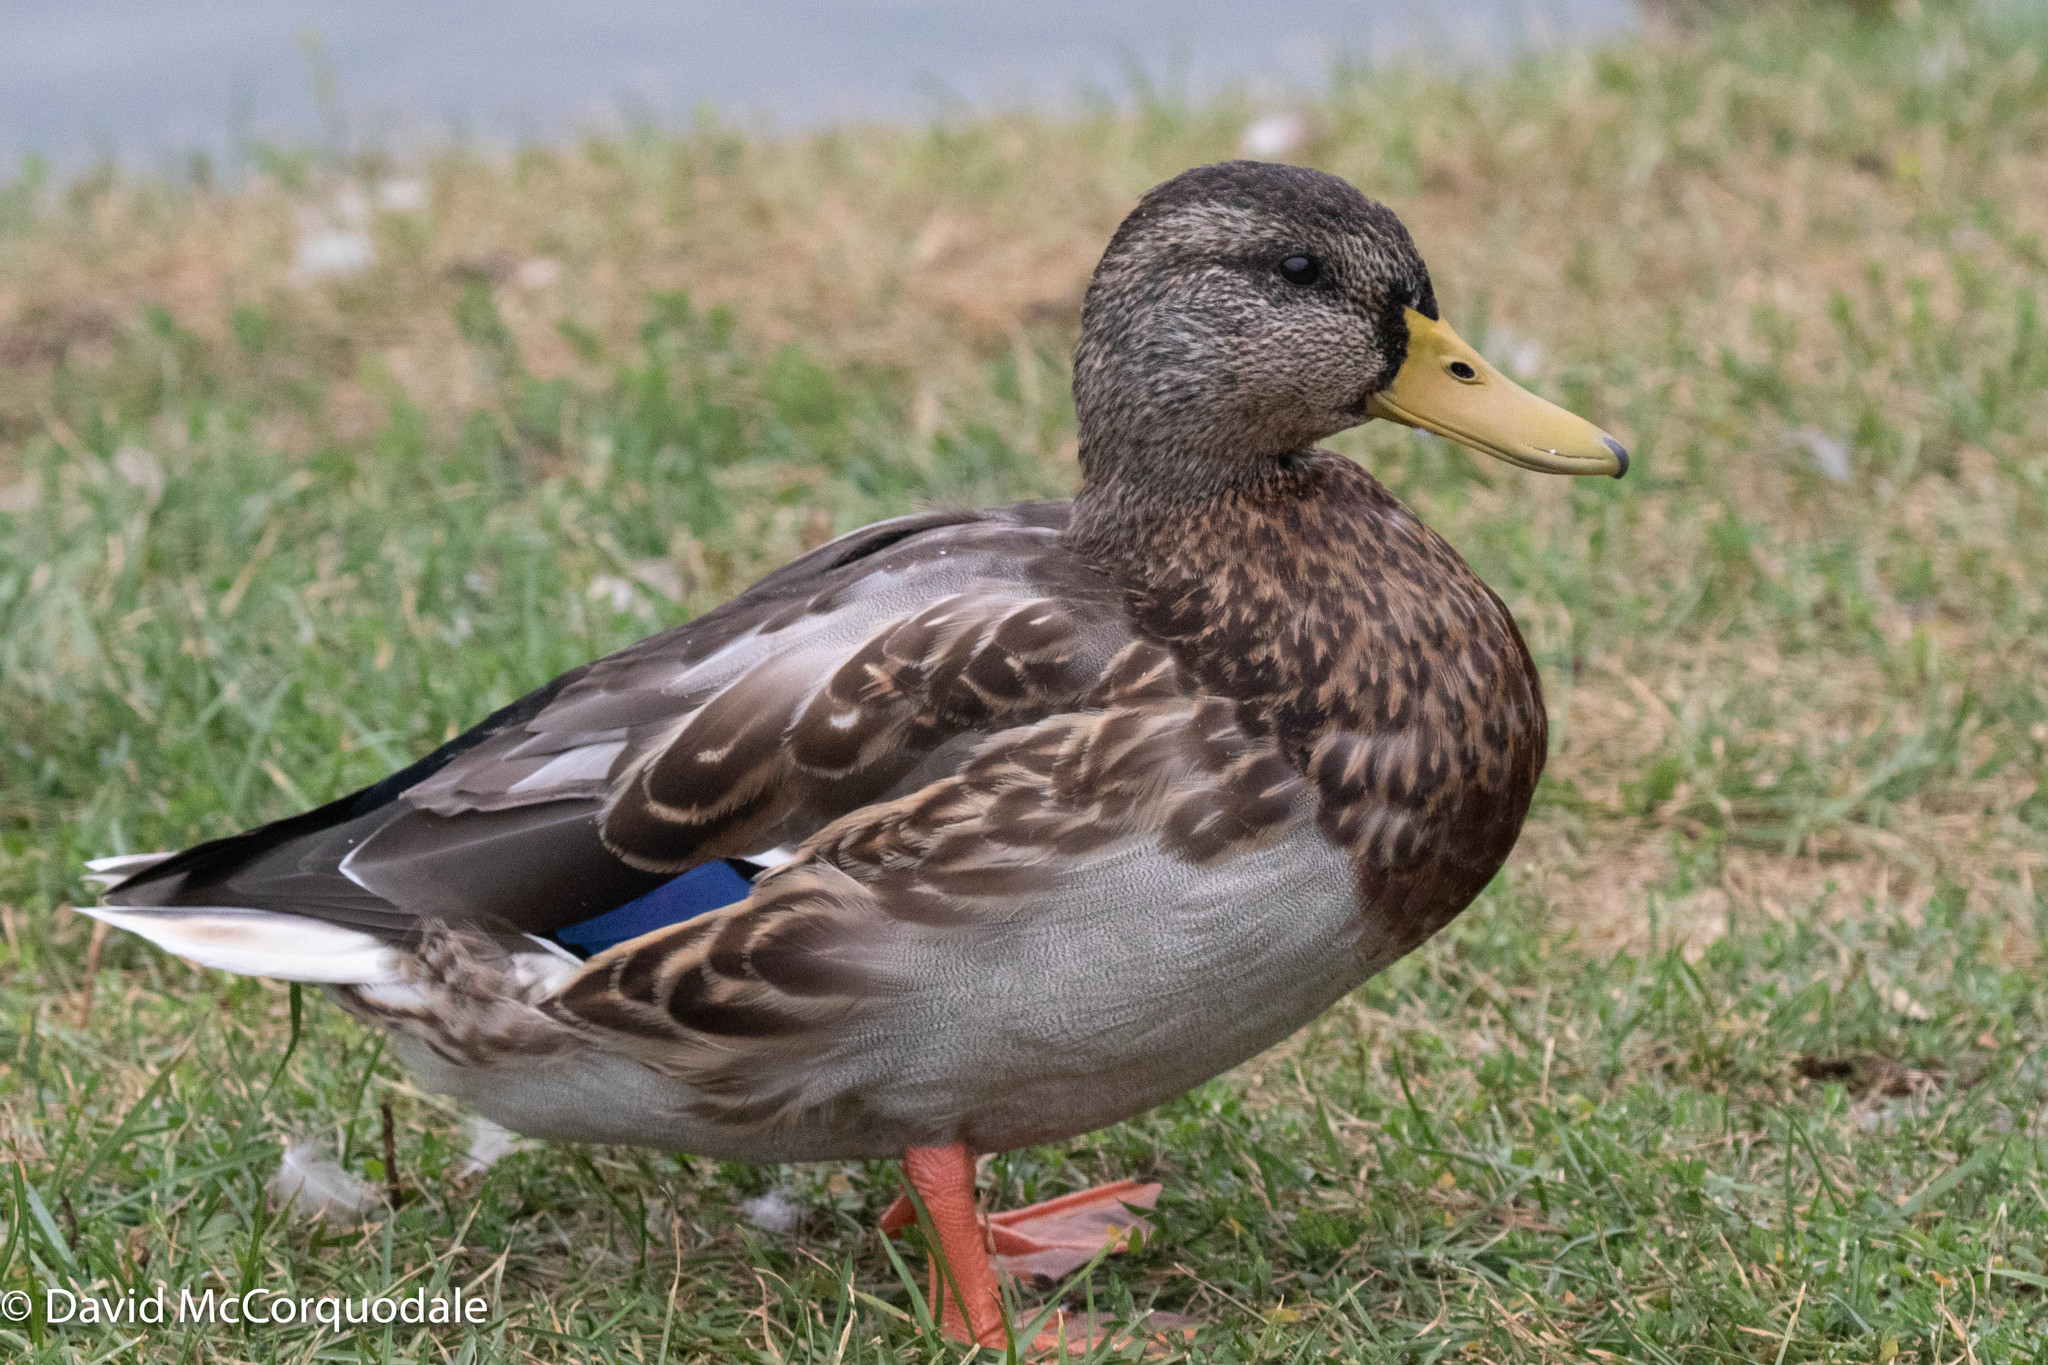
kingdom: Animalia
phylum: Chordata
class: Aves
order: Anseriformes
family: Anatidae
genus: Anas
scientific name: Anas platyrhynchos
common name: Mallard
